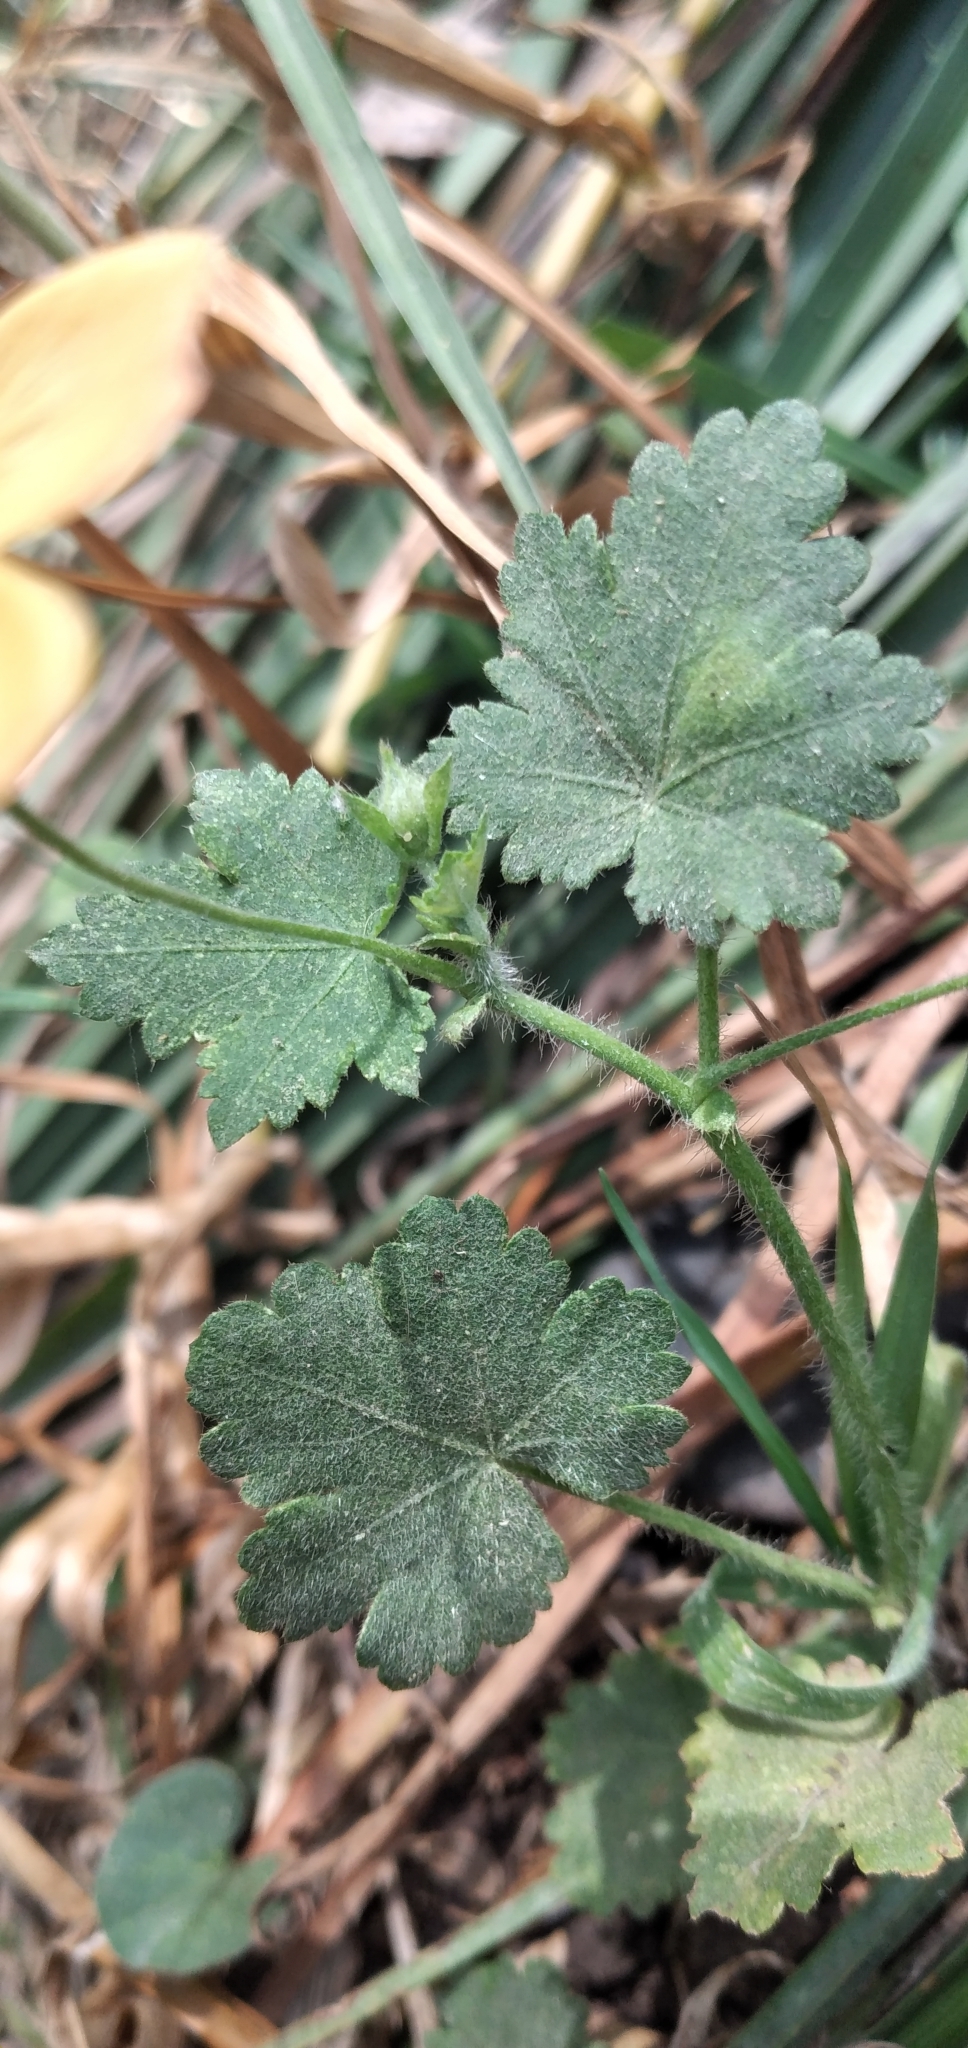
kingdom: Plantae
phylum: Tracheophyta
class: Magnoliopsida
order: Malvales
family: Malvaceae
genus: Modiolastrum
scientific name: Modiolastrum malvifolium
